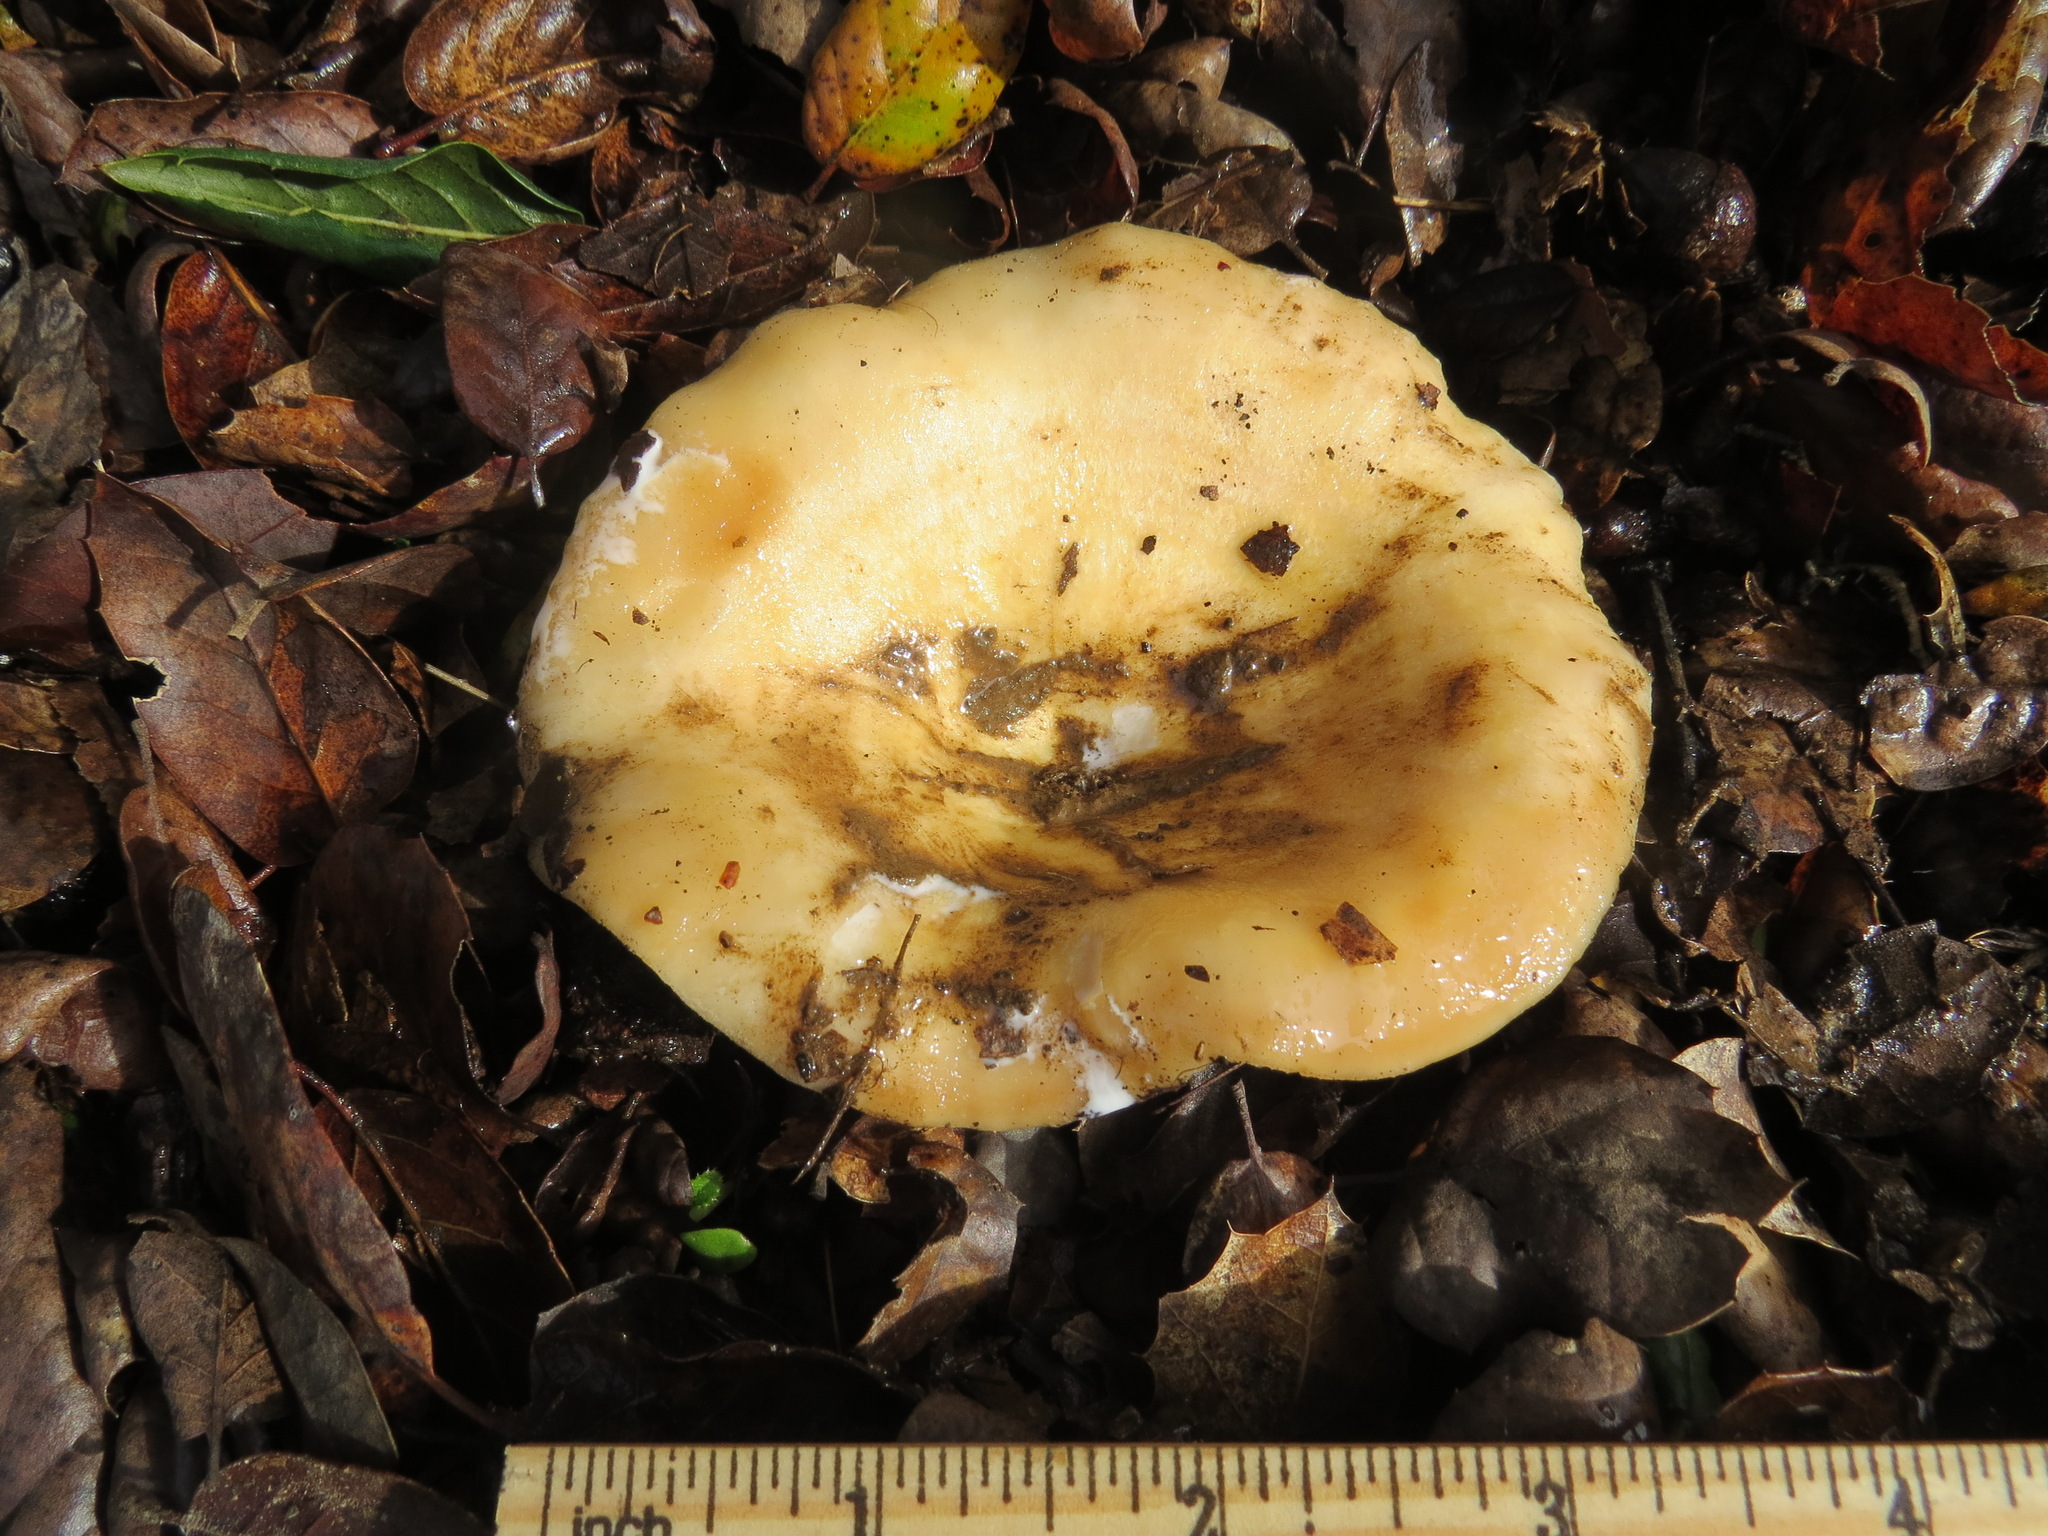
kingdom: Fungi
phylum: Basidiomycota
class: Agaricomycetes
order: Russulales
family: Russulaceae
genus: Lactarius
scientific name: Lactarius alnicola
